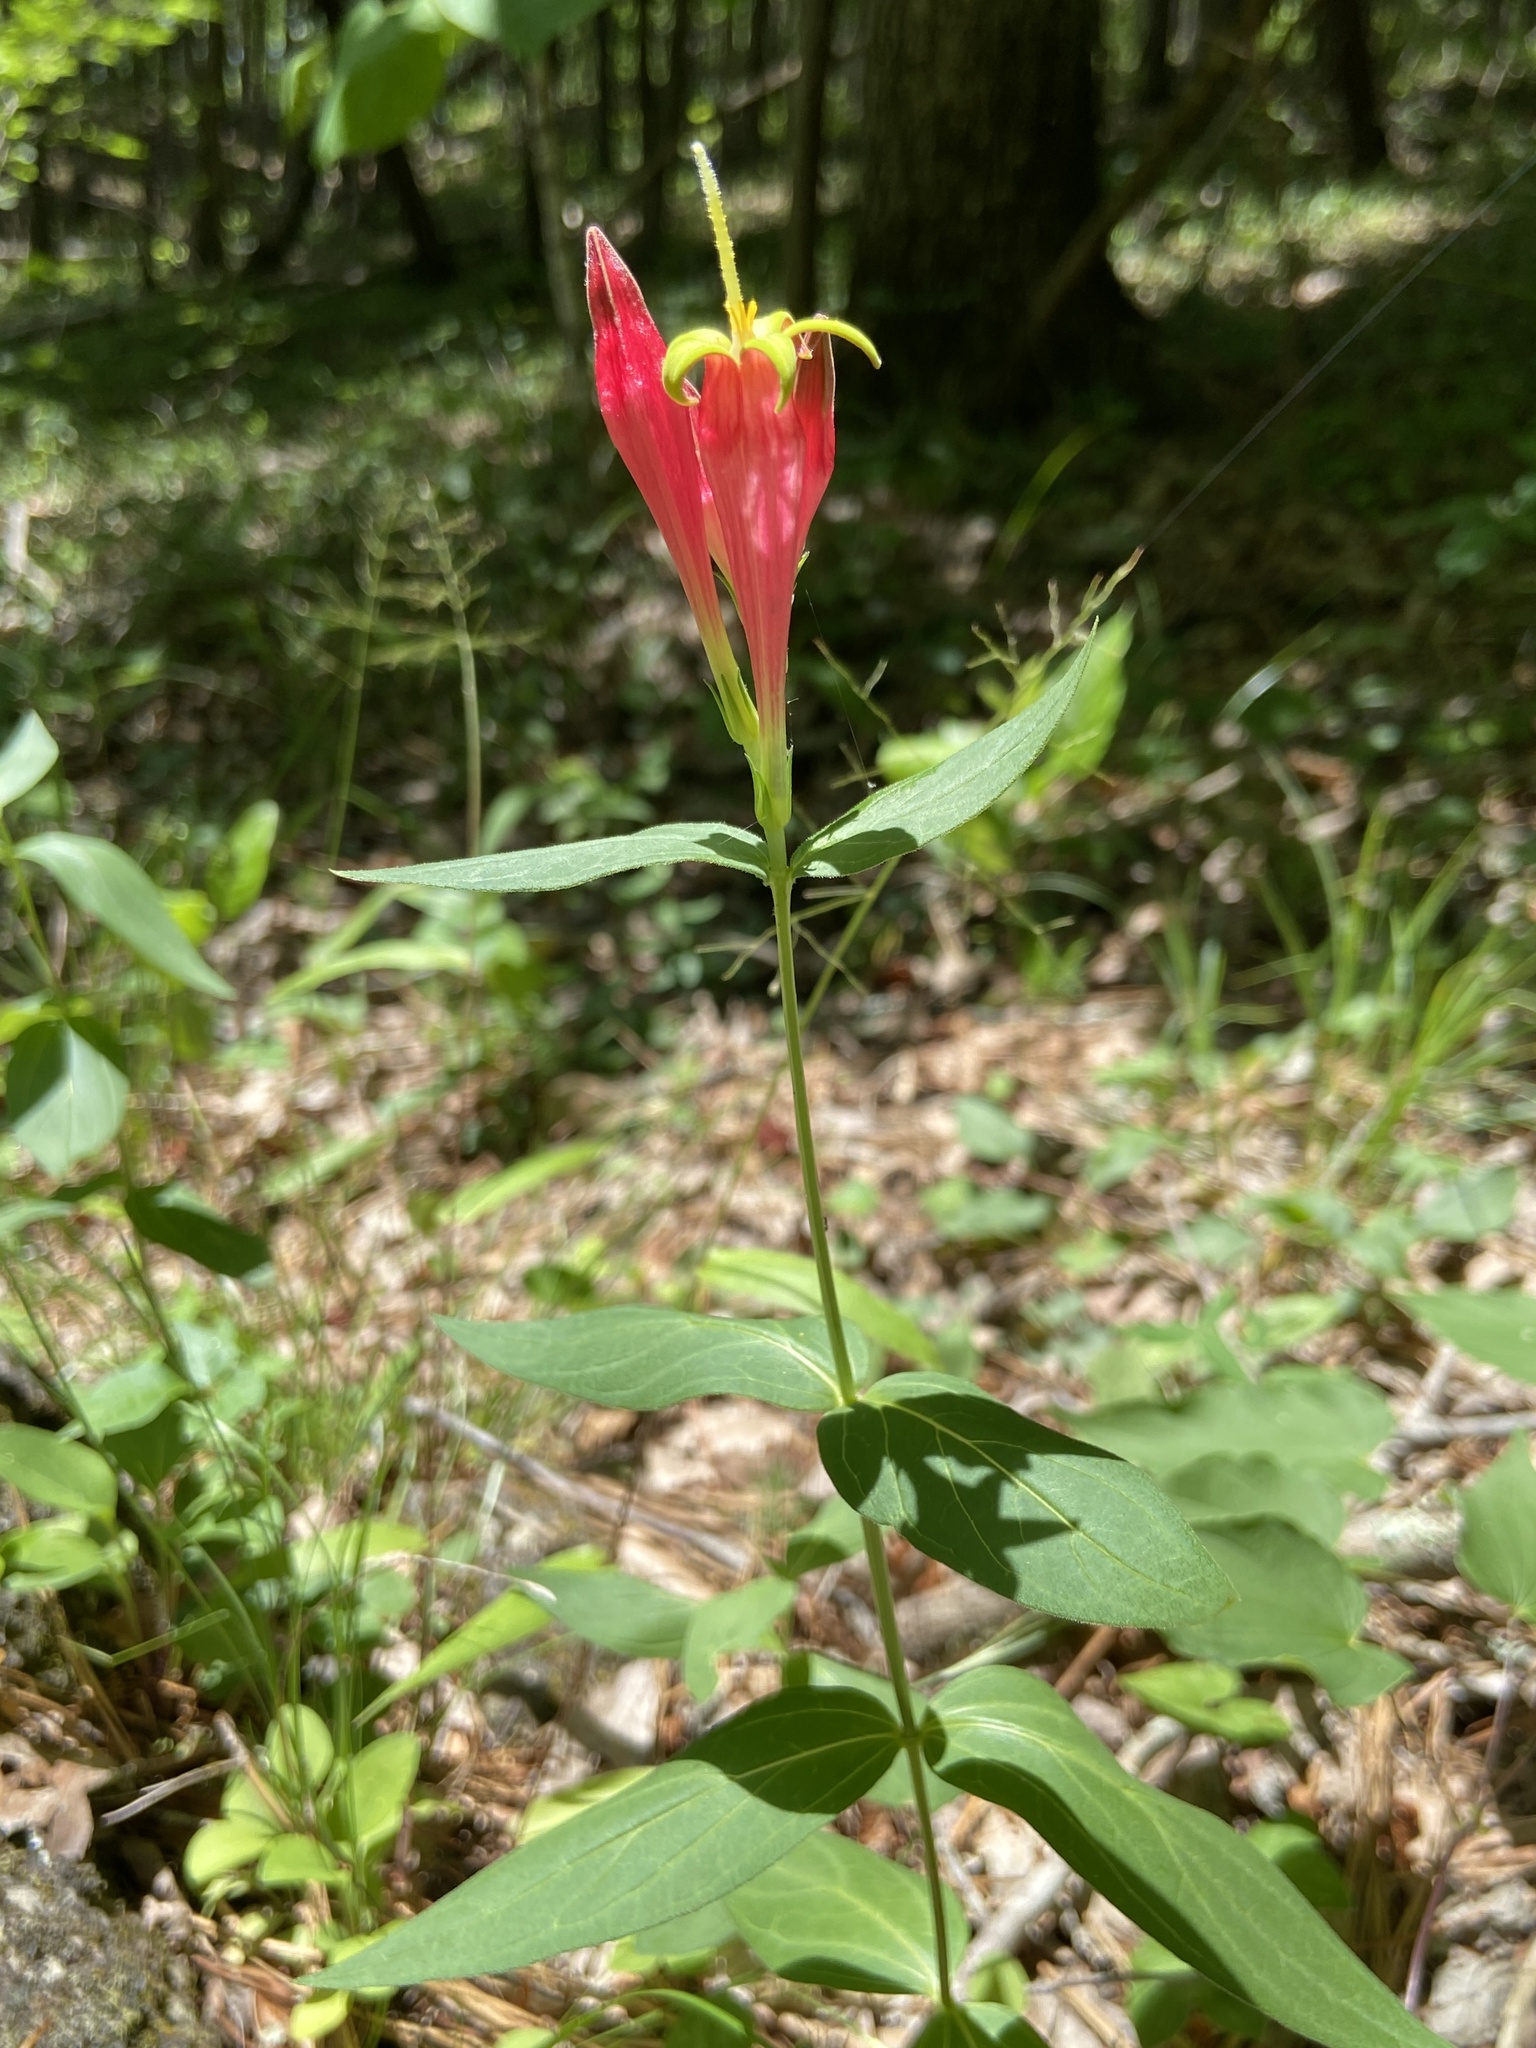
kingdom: Plantae
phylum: Tracheophyta
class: Magnoliopsida
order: Gentianales
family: Loganiaceae
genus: Spigelia
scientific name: Spigelia marilandica
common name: Indian-pink
